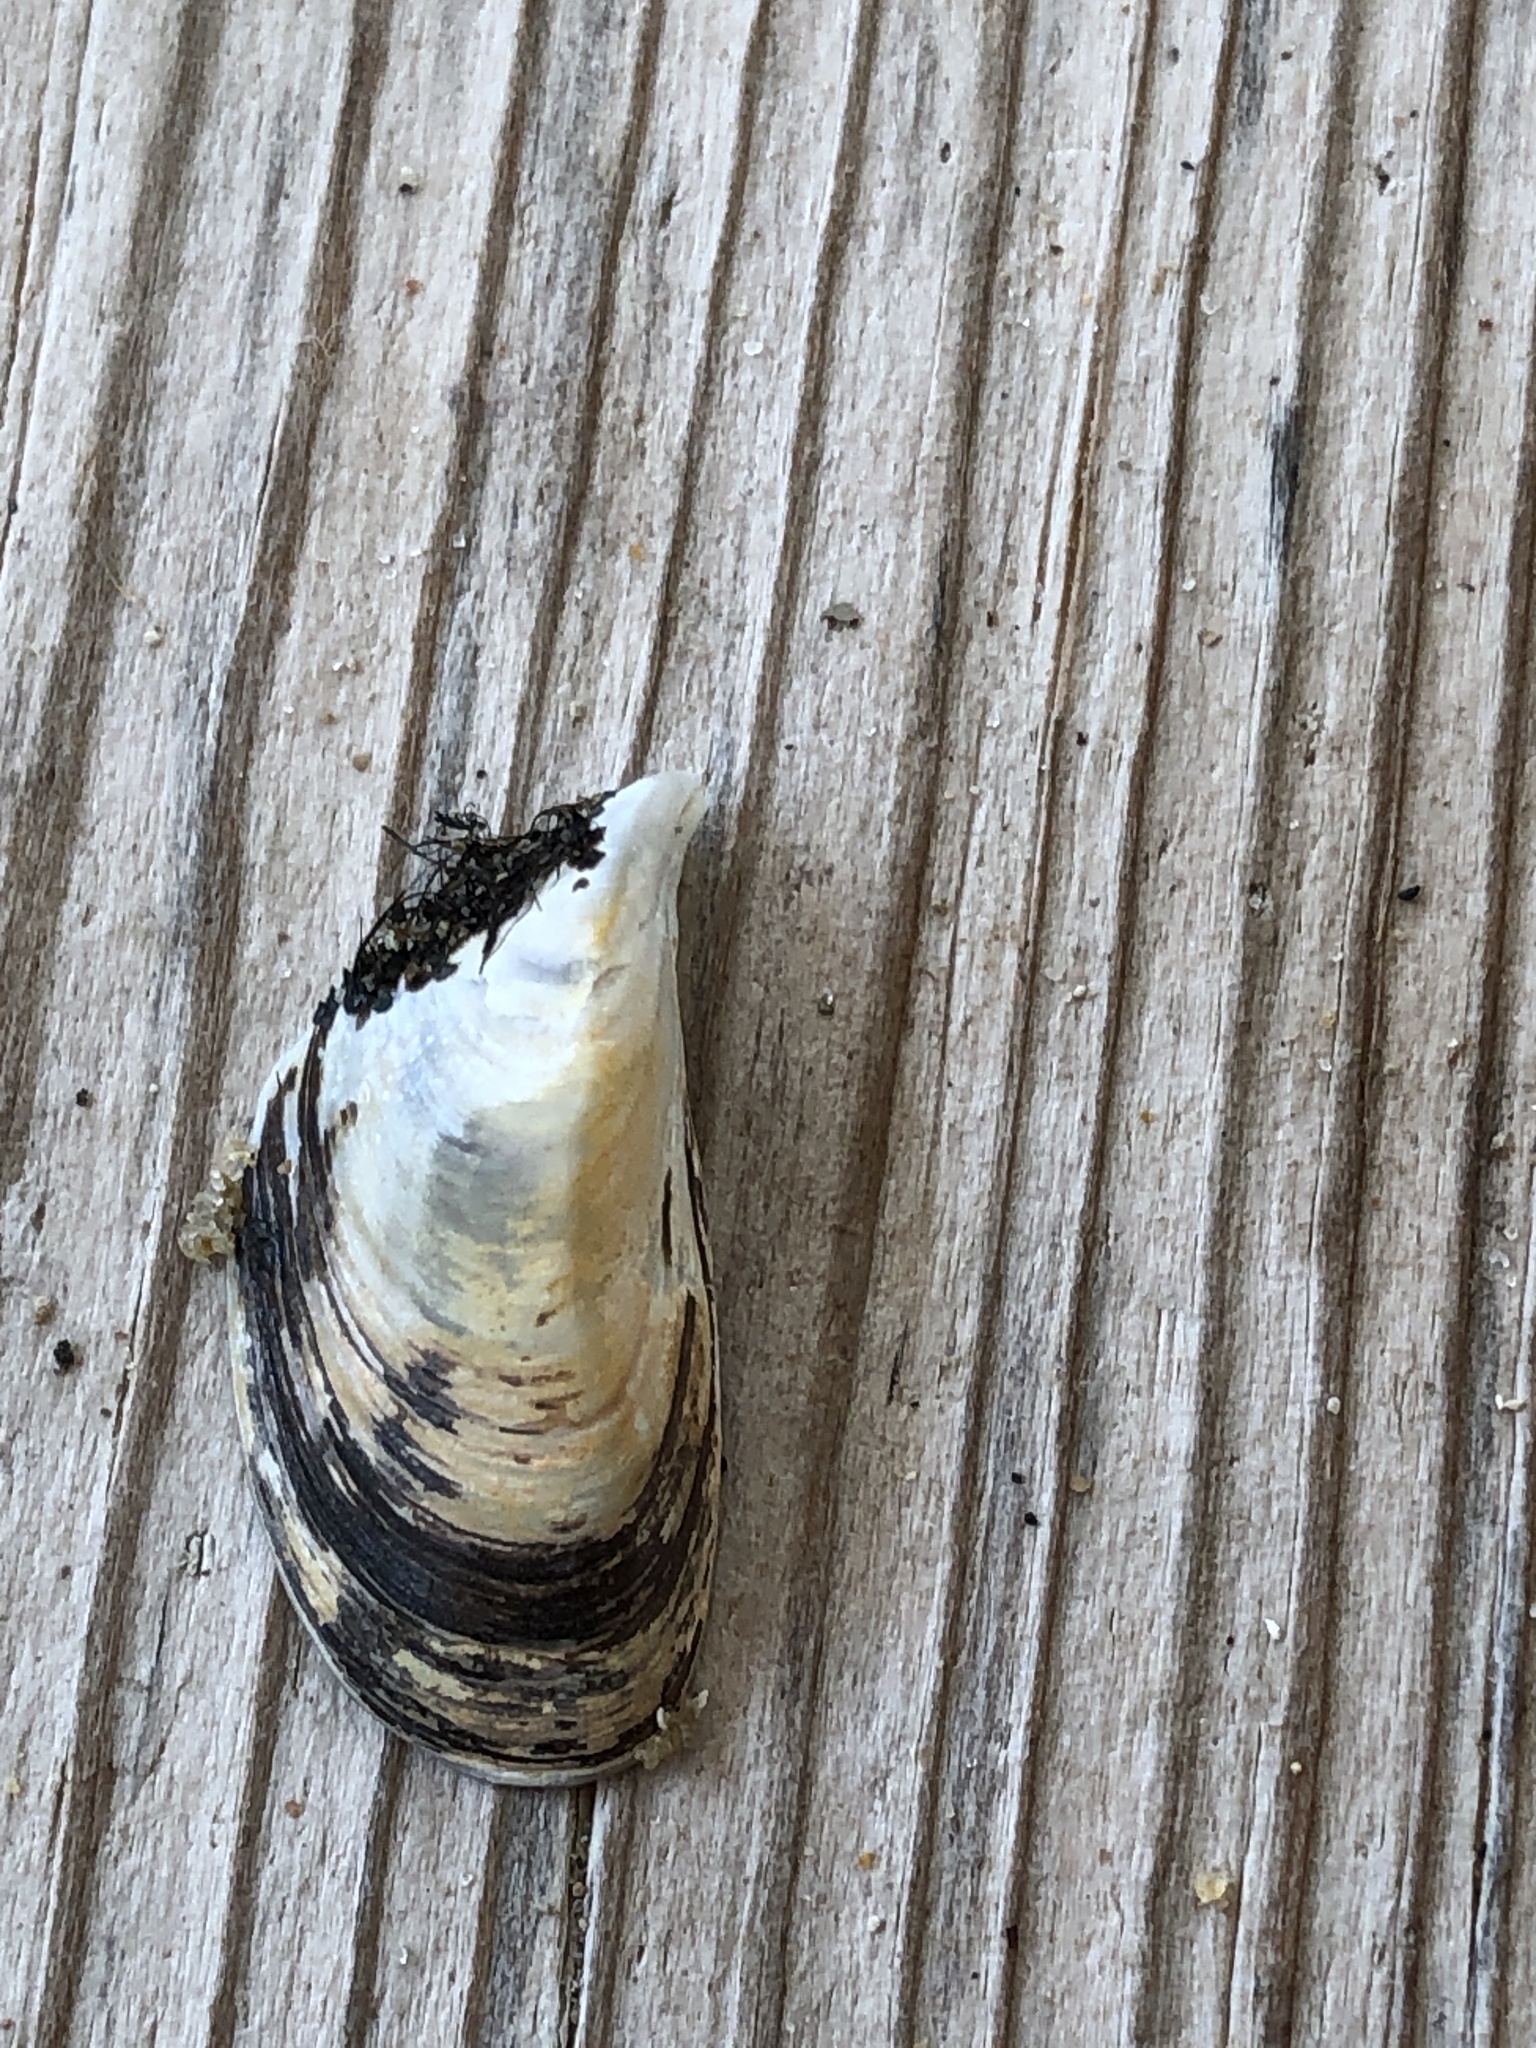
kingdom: Animalia
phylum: Mollusca
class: Bivalvia
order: Myida
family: Dreissenidae
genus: Dreissena
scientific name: Dreissena polymorpha
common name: Zebra mussel
